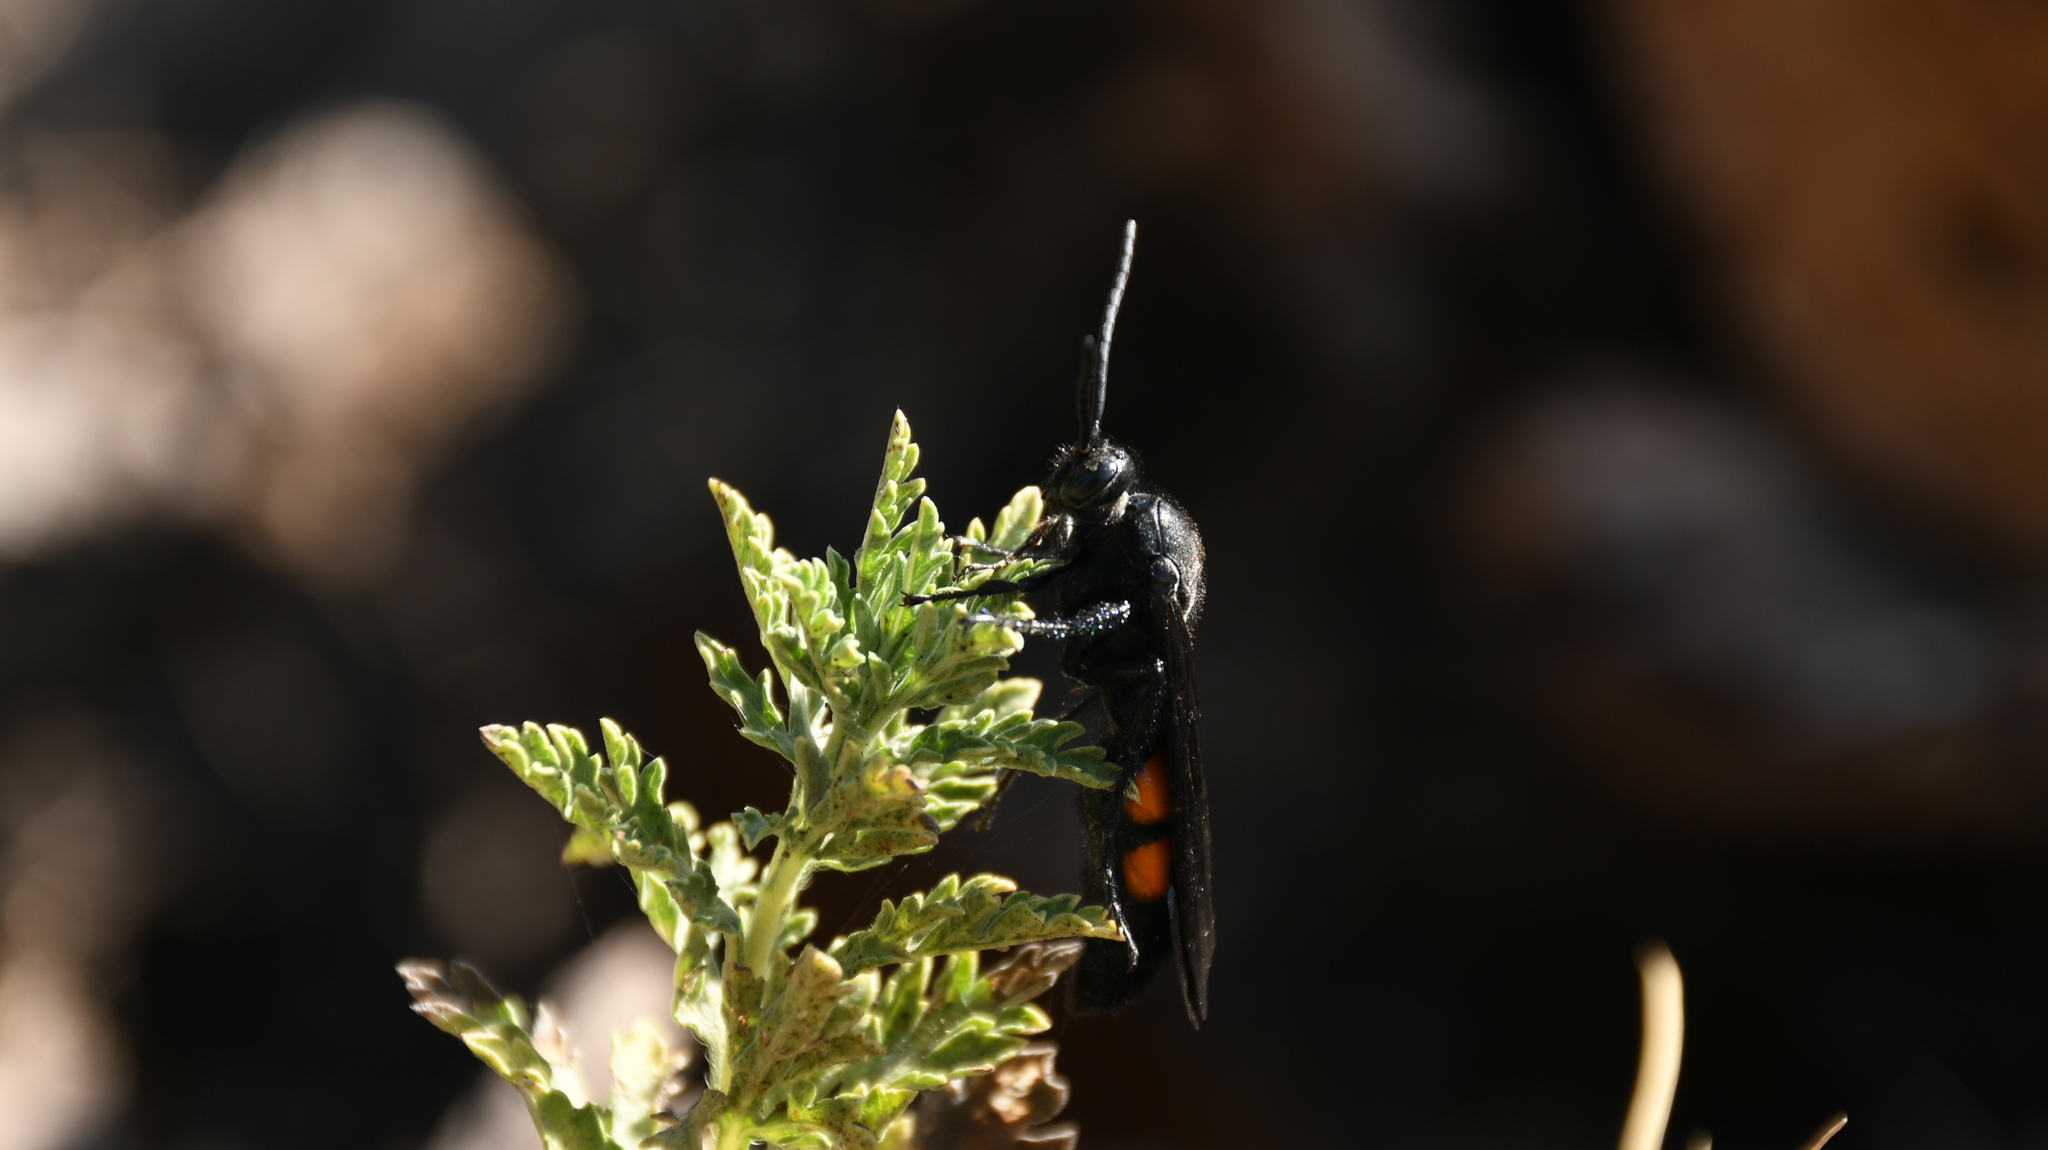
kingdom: Animalia
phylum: Arthropoda
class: Insecta
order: Hymenoptera
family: Scoliidae
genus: Pygodasis
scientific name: Pygodasis ephippium
